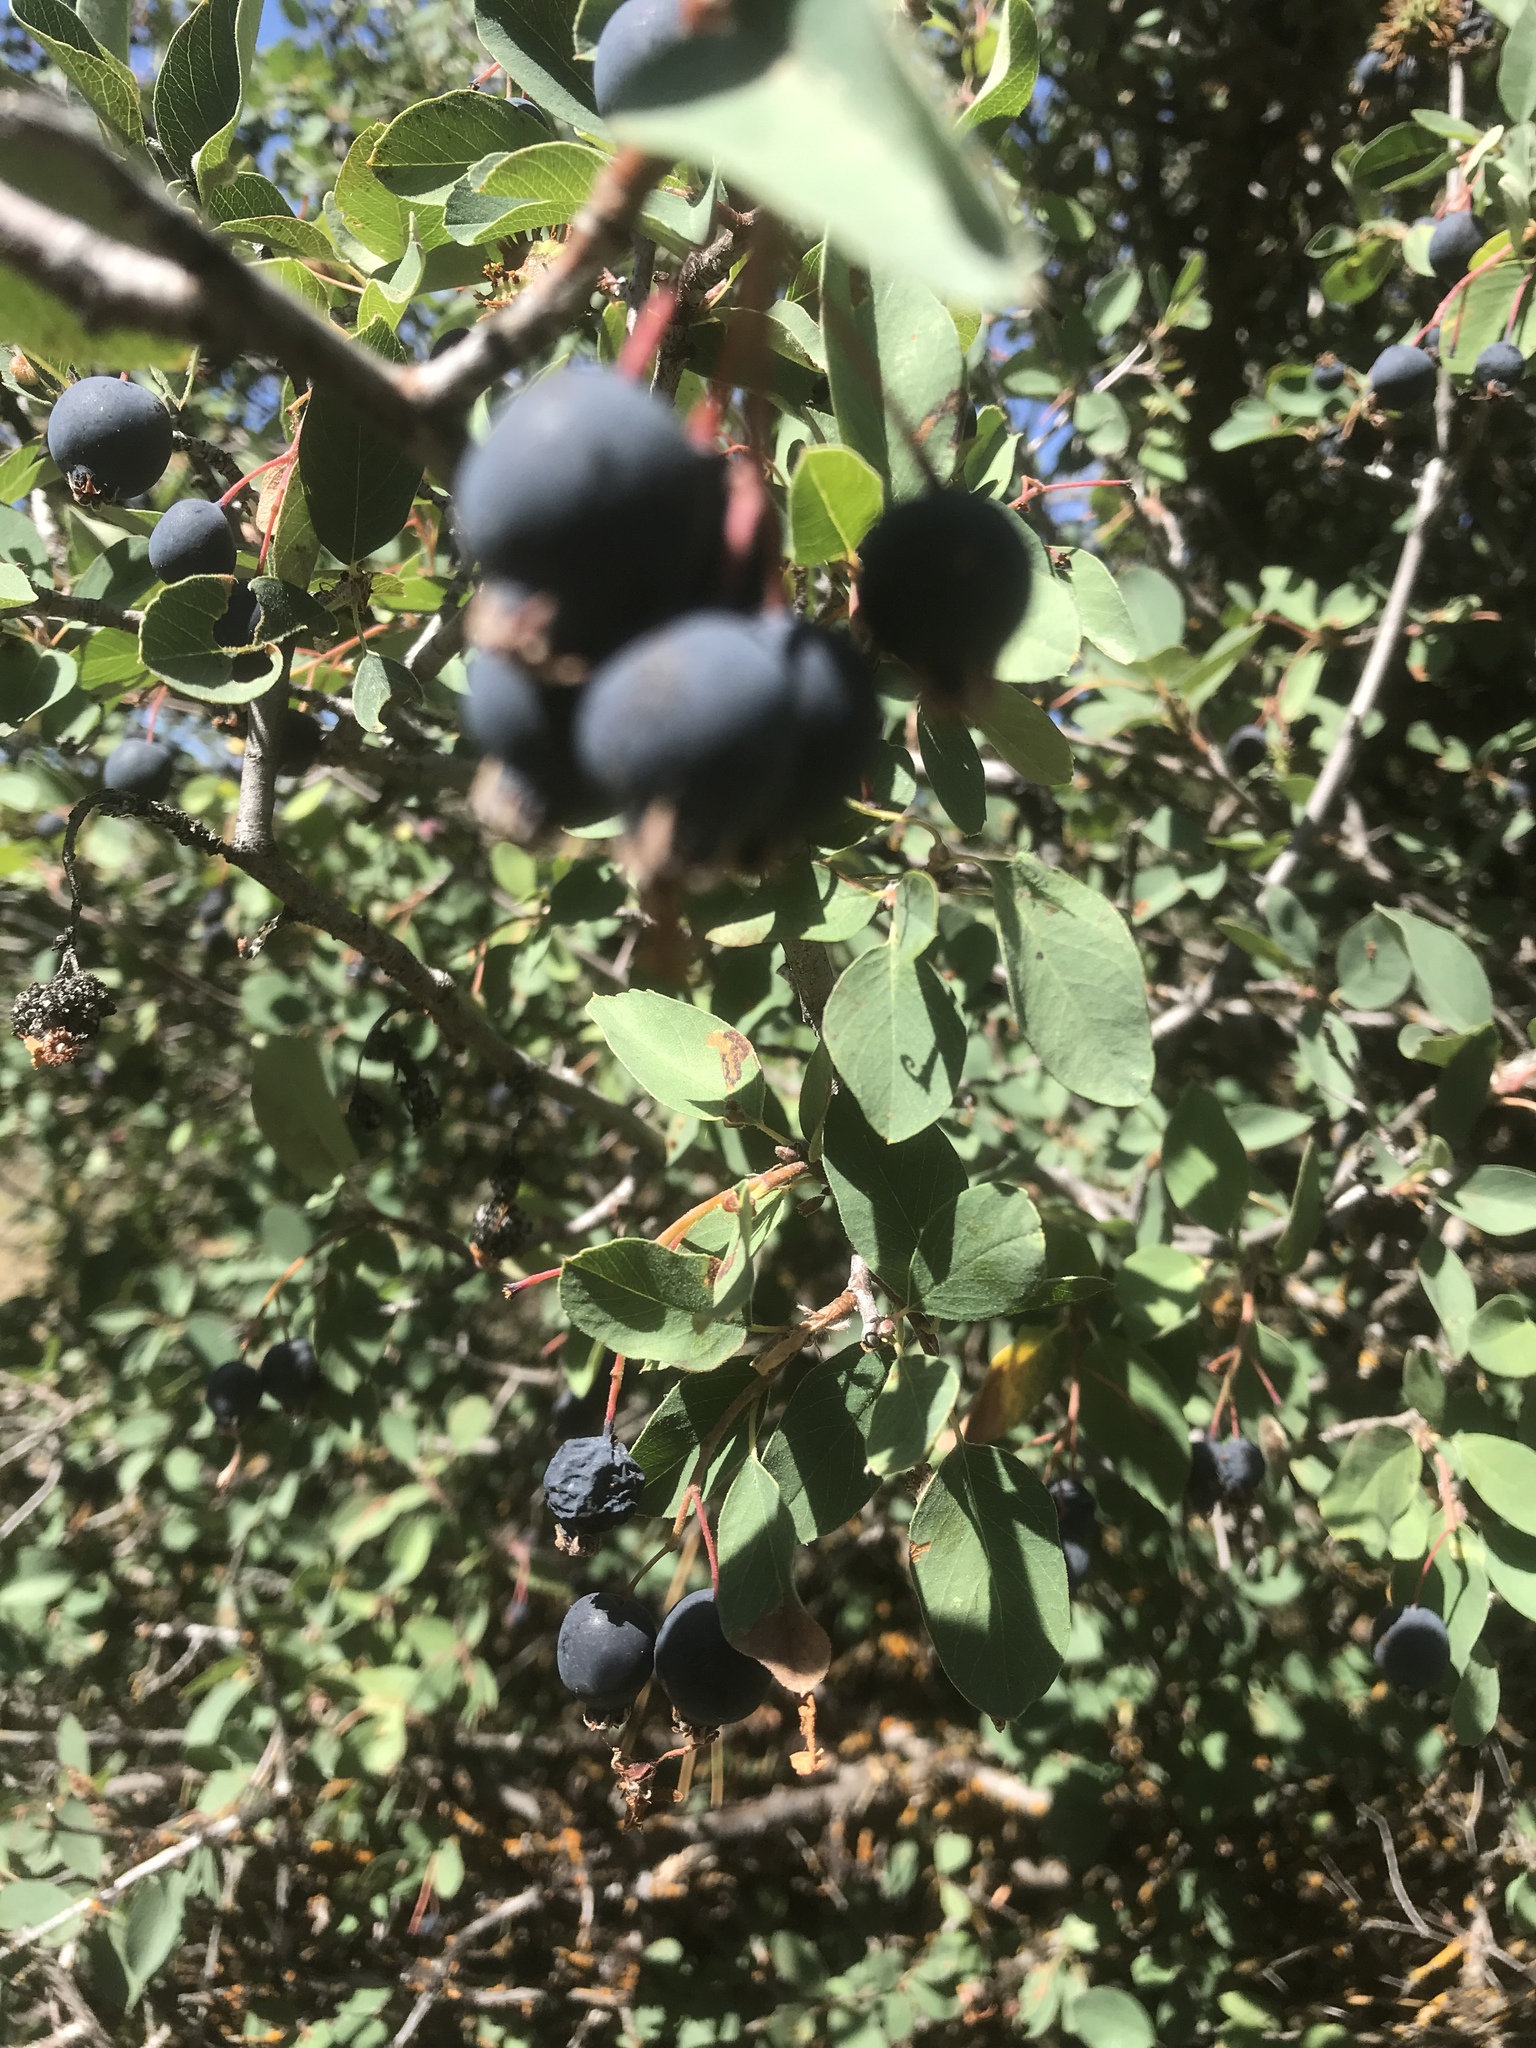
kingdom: Plantae
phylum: Tracheophyta
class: Magnoliopsida
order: Rosales
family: Rosaceae
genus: Amelanchier
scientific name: Amelanchier utahensis
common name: Utah serviceberry
